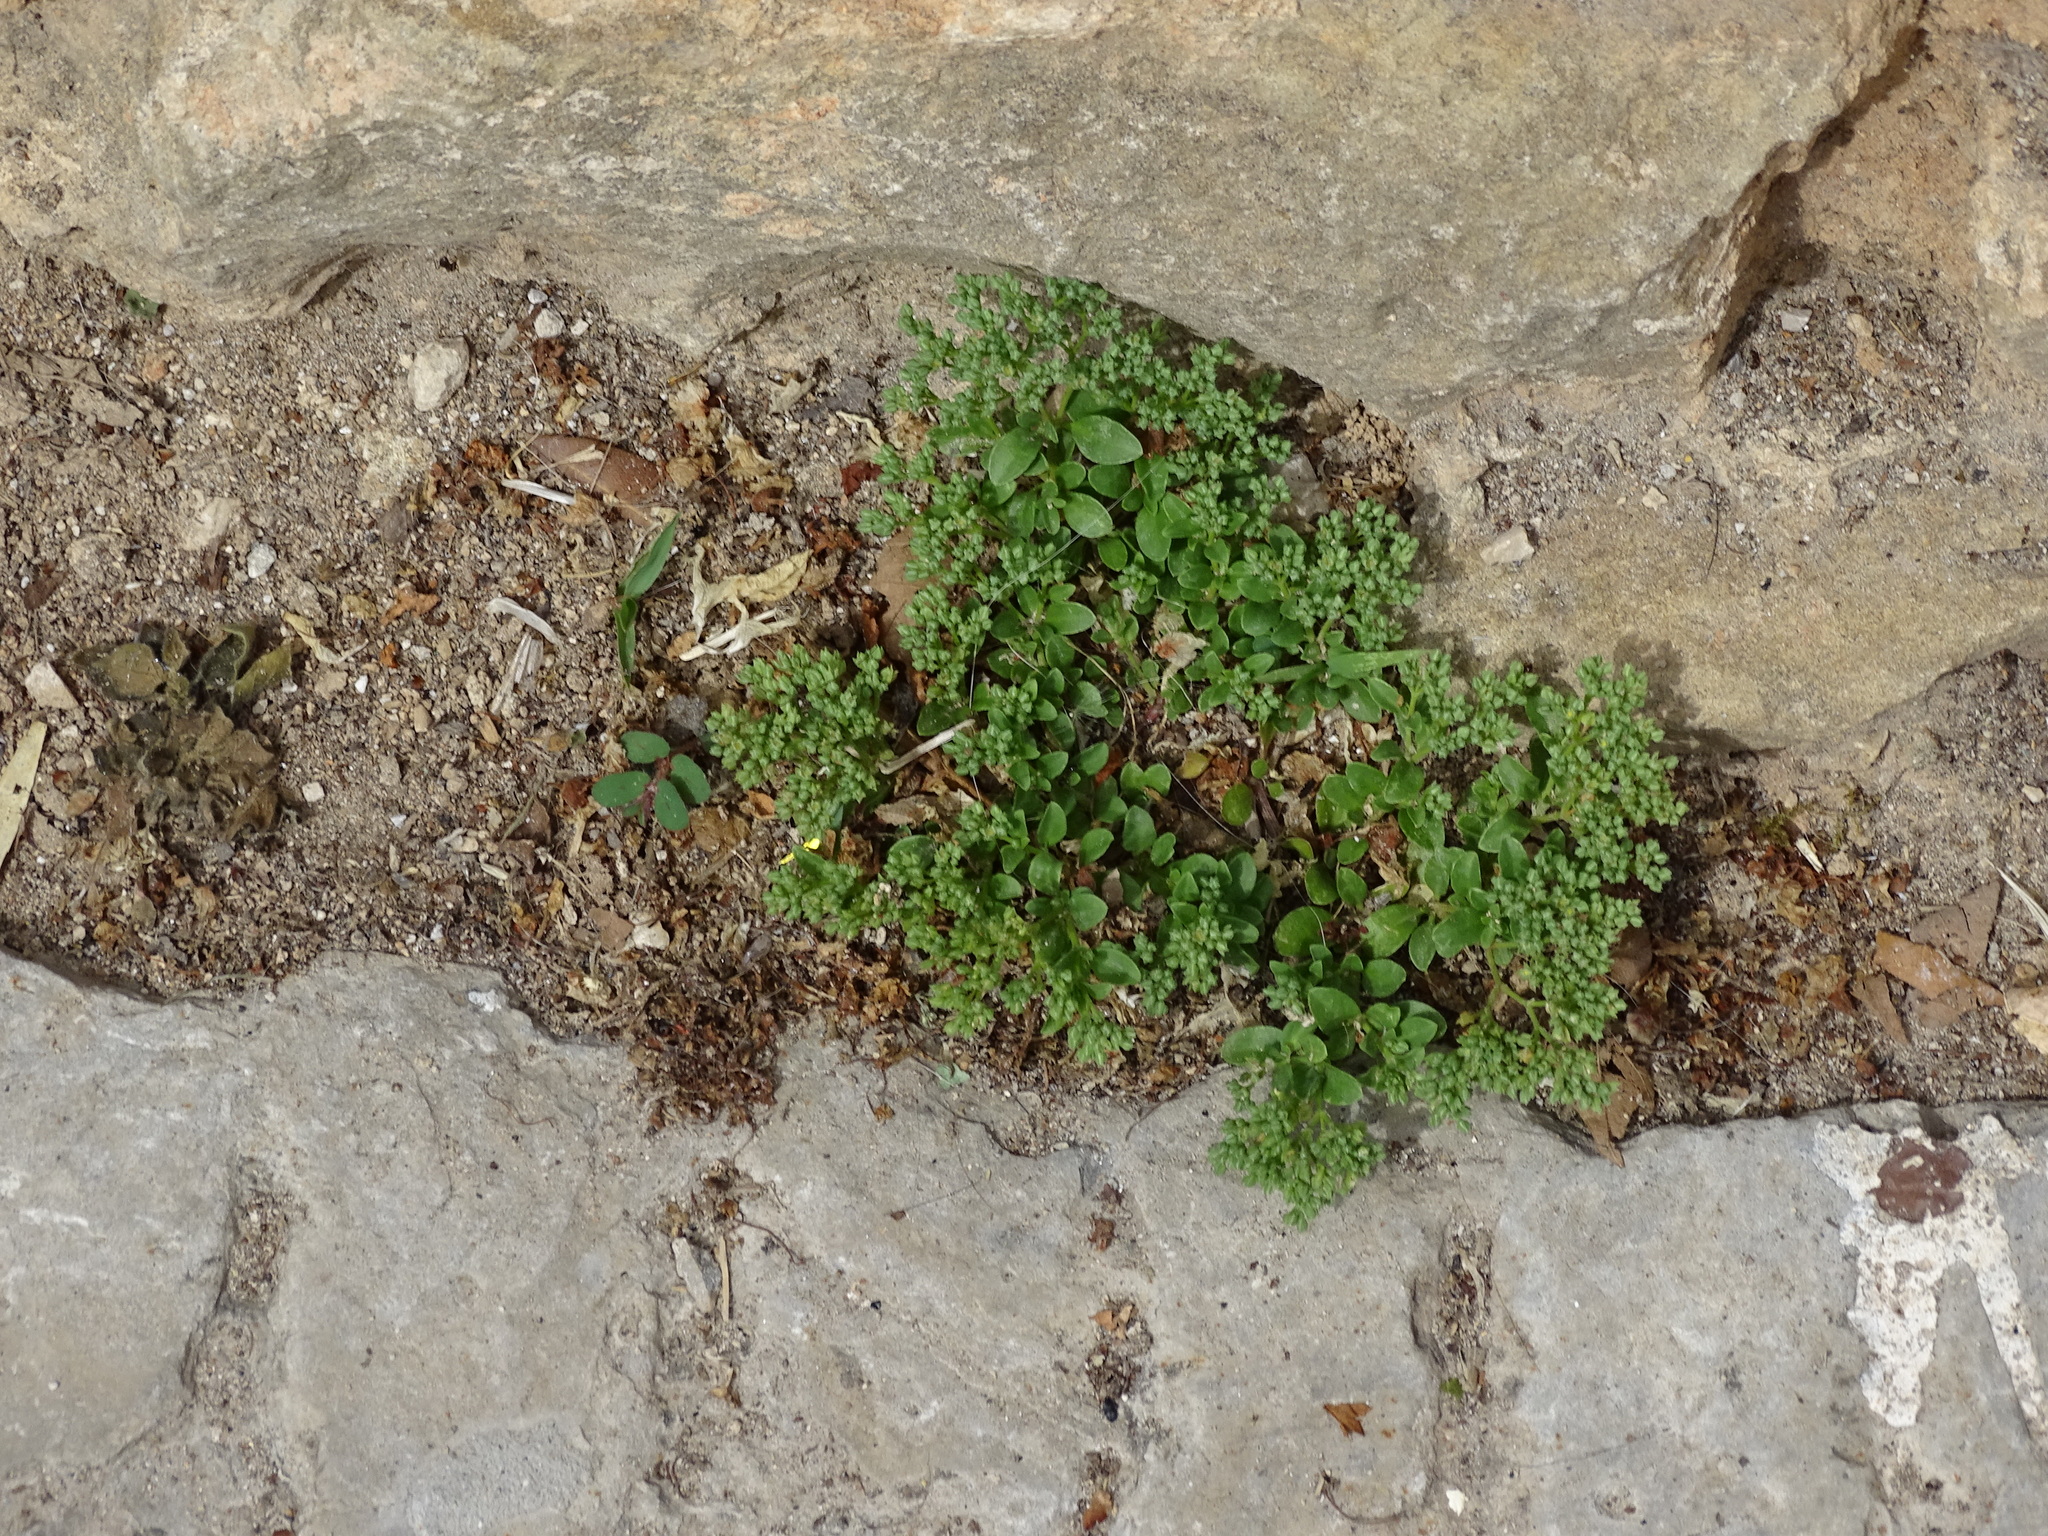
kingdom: Plantae
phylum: Tracheophyta
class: Magnoliopsida
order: Caryophyllales
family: Caryophyllaceae
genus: Polycarpon
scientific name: Polycarpon tetraphyllum
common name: Four-leaved all-seed
